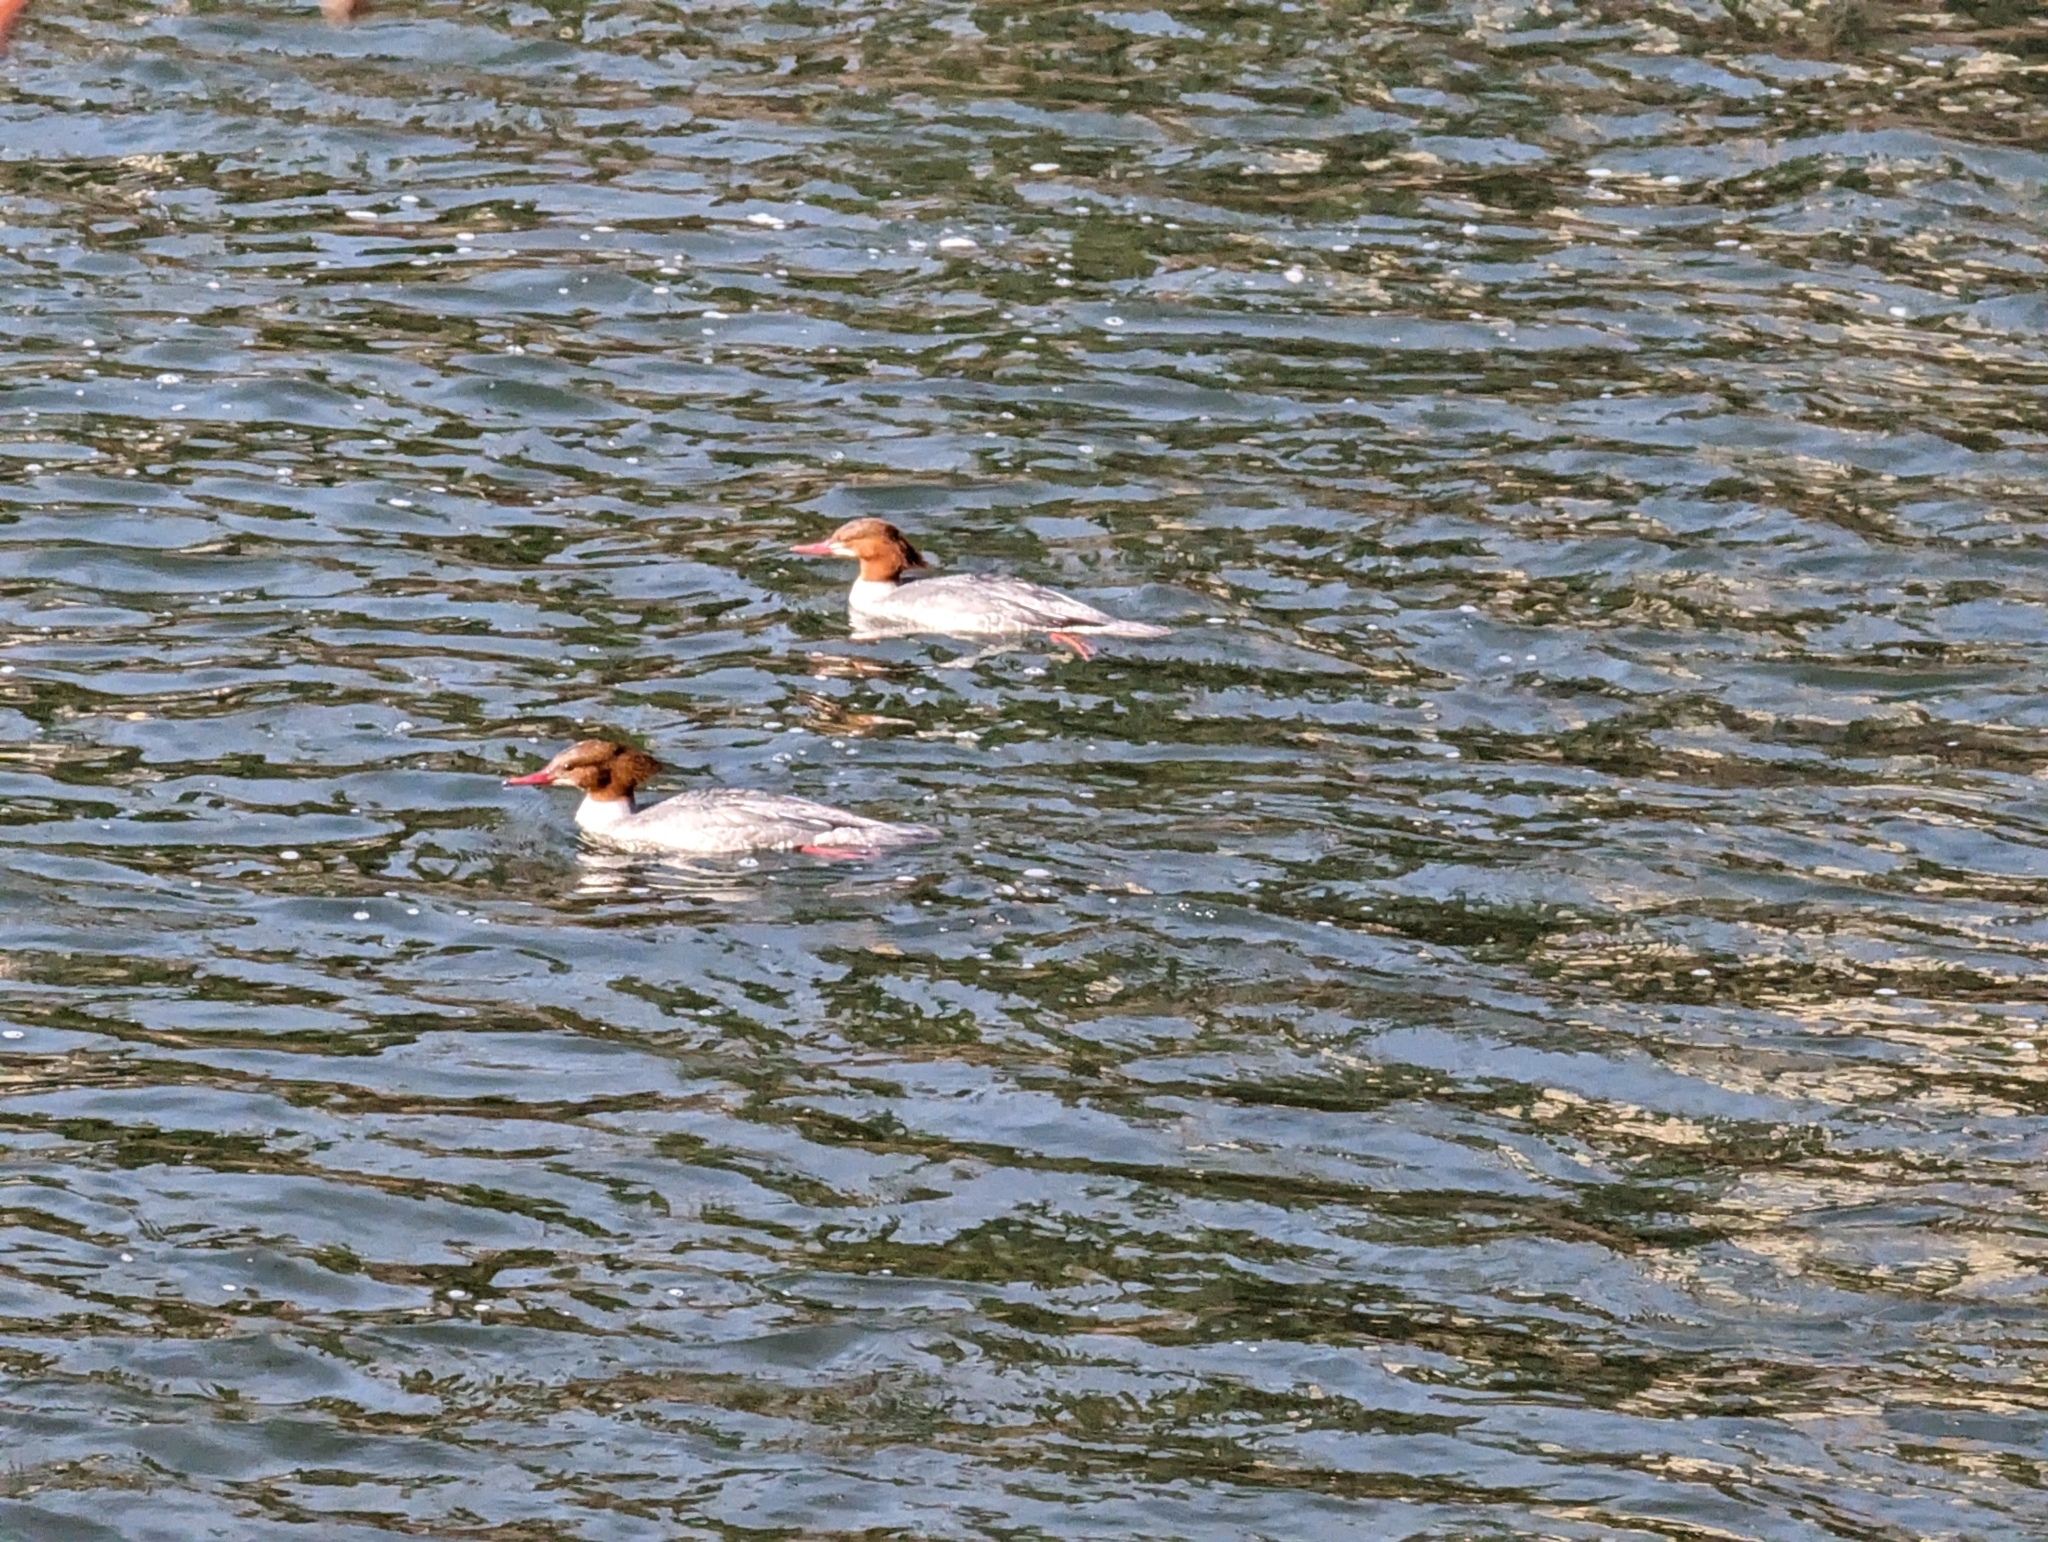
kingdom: Animalia
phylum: Chordata
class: Aves
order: Anseriformes
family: Anatidae
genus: Mergus
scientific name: Mergus merganser
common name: Common merganser
